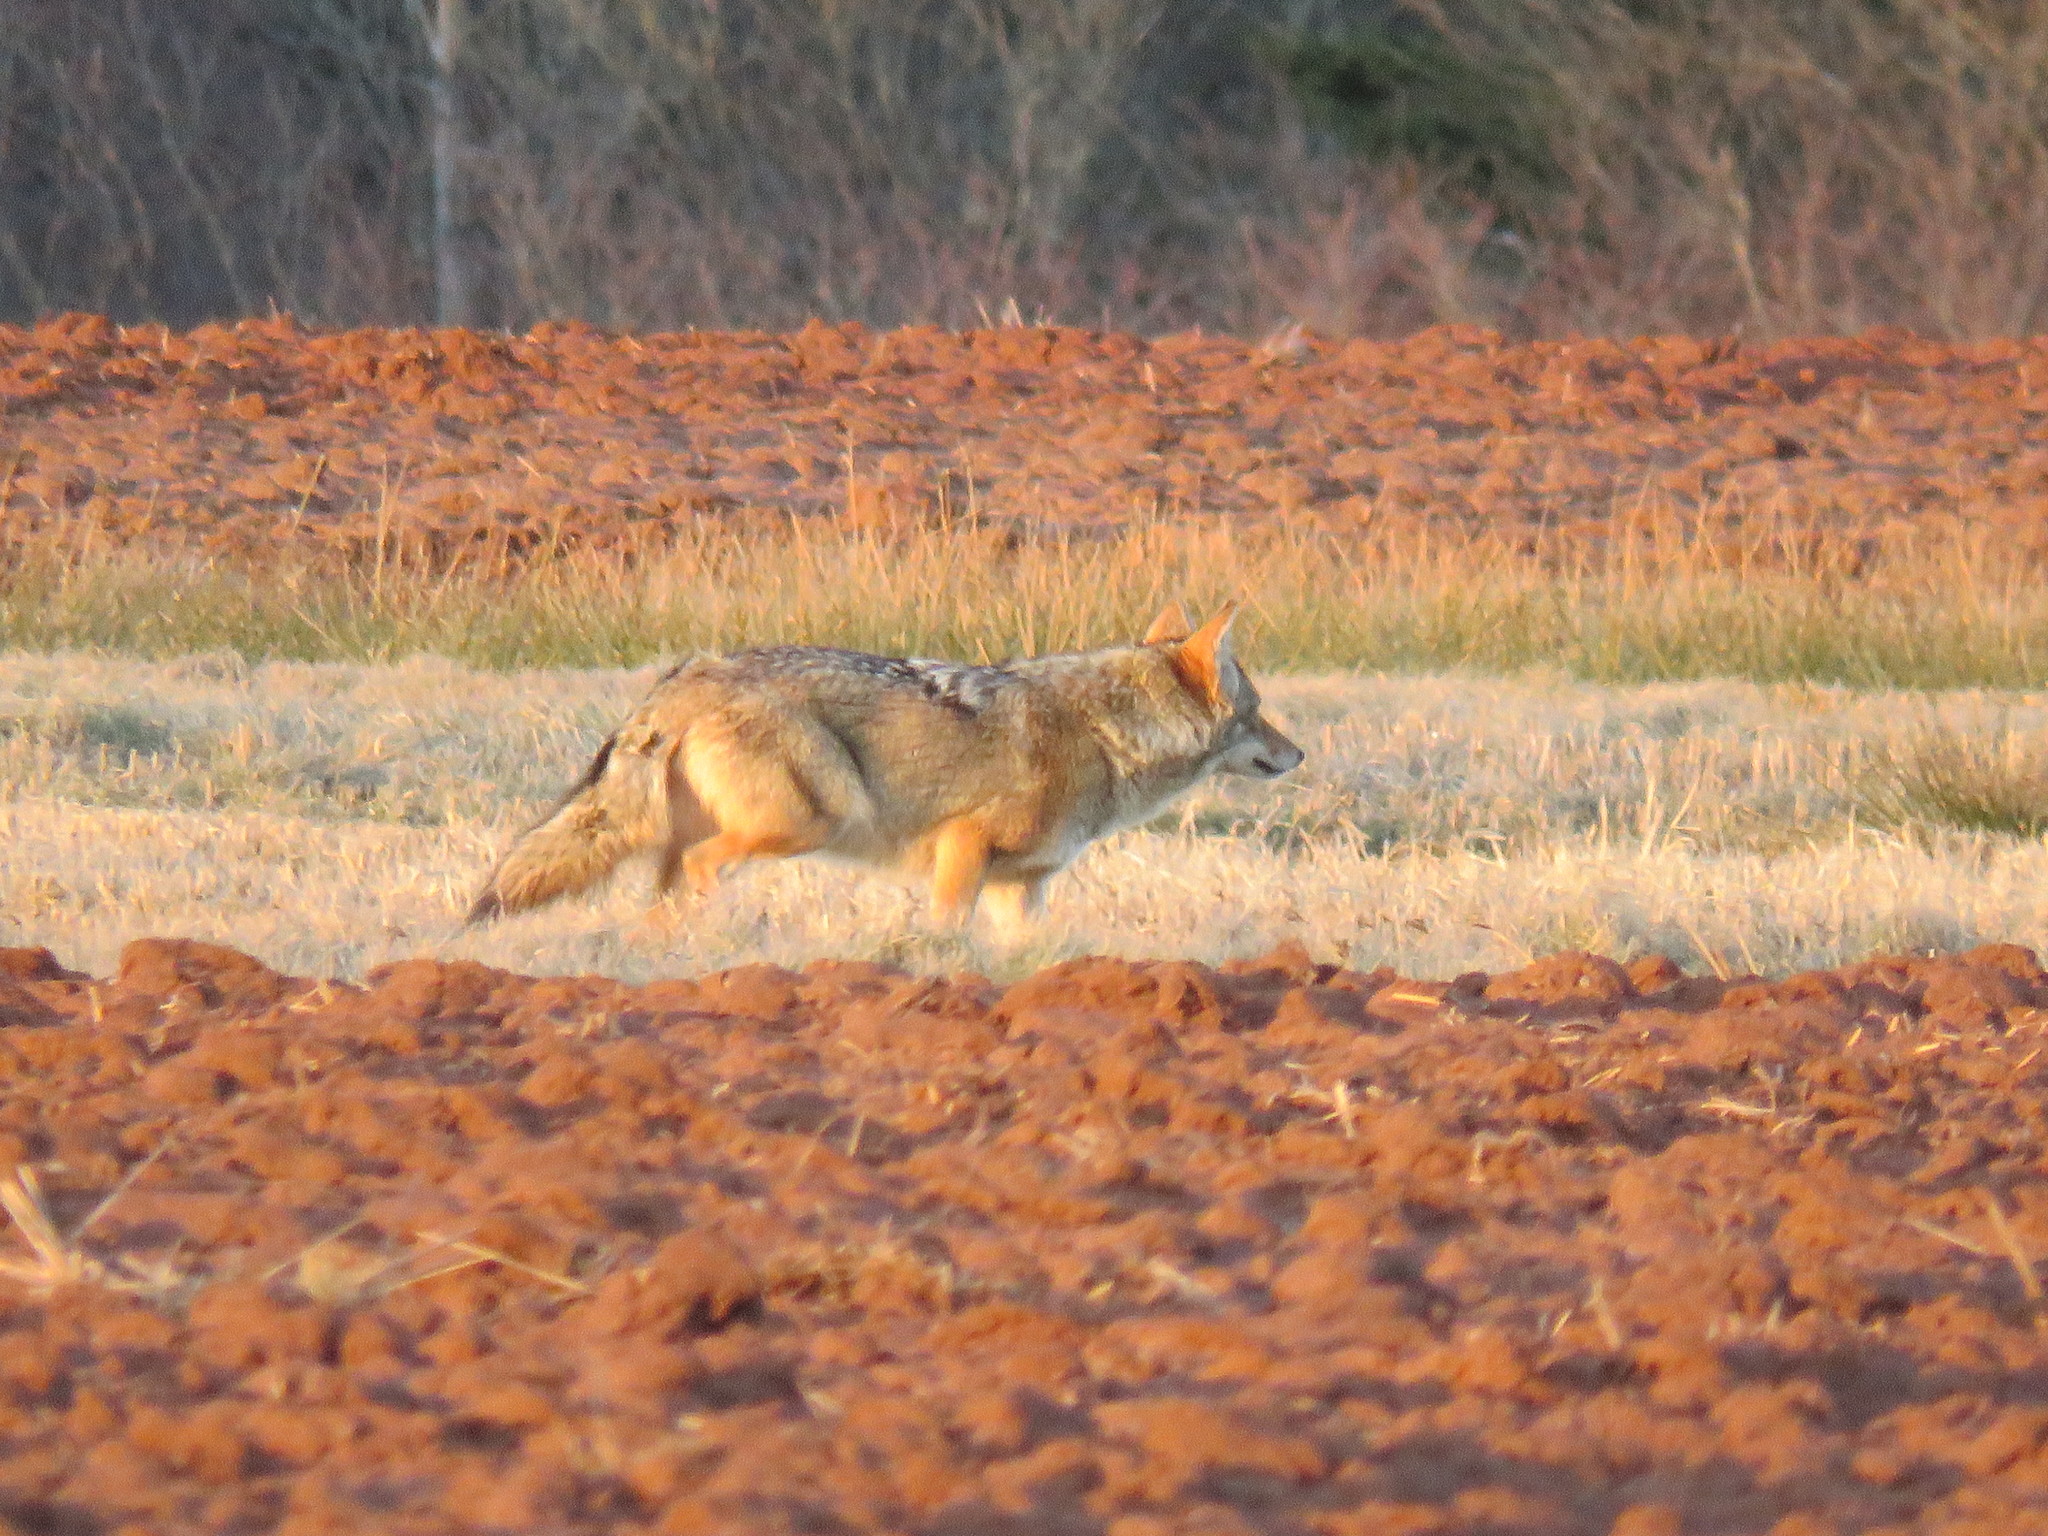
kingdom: Animalia
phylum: Chordata
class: Mammalia
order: Carnivora
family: Canidae
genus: Canis
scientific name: Canis latrans
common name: Coyote
